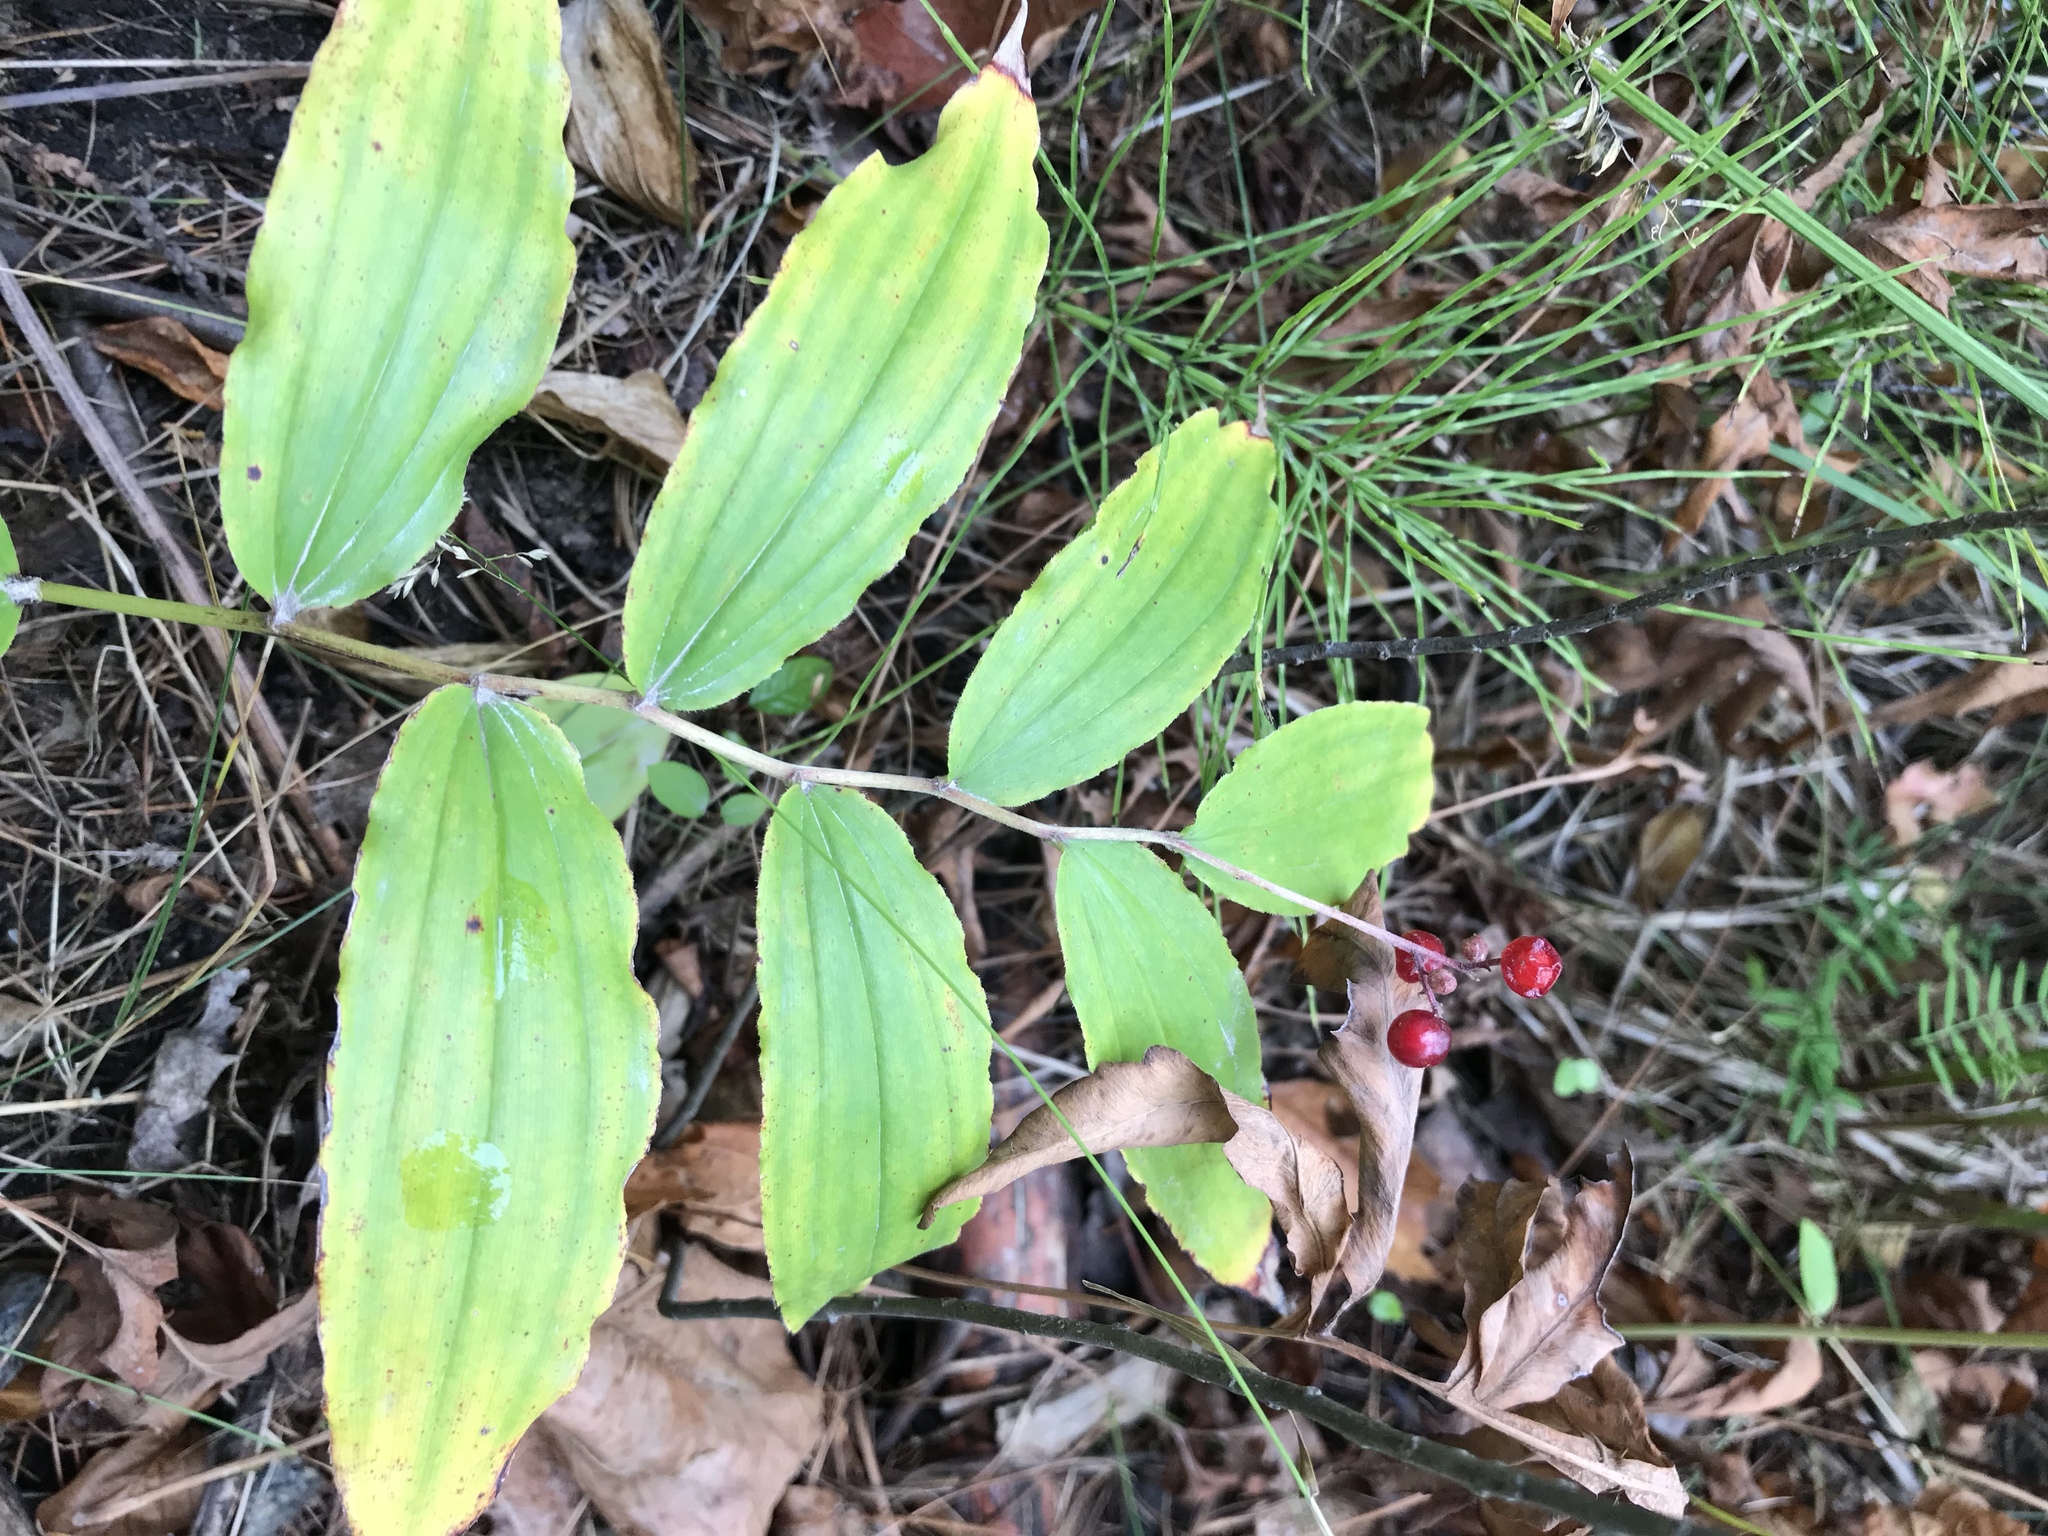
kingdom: Plantae
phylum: Tracheophyta
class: Liliopsida
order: Asparagales
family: Asparagaceae
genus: Maianthemum
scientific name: Maianthemum racemosum
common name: False spikenard
